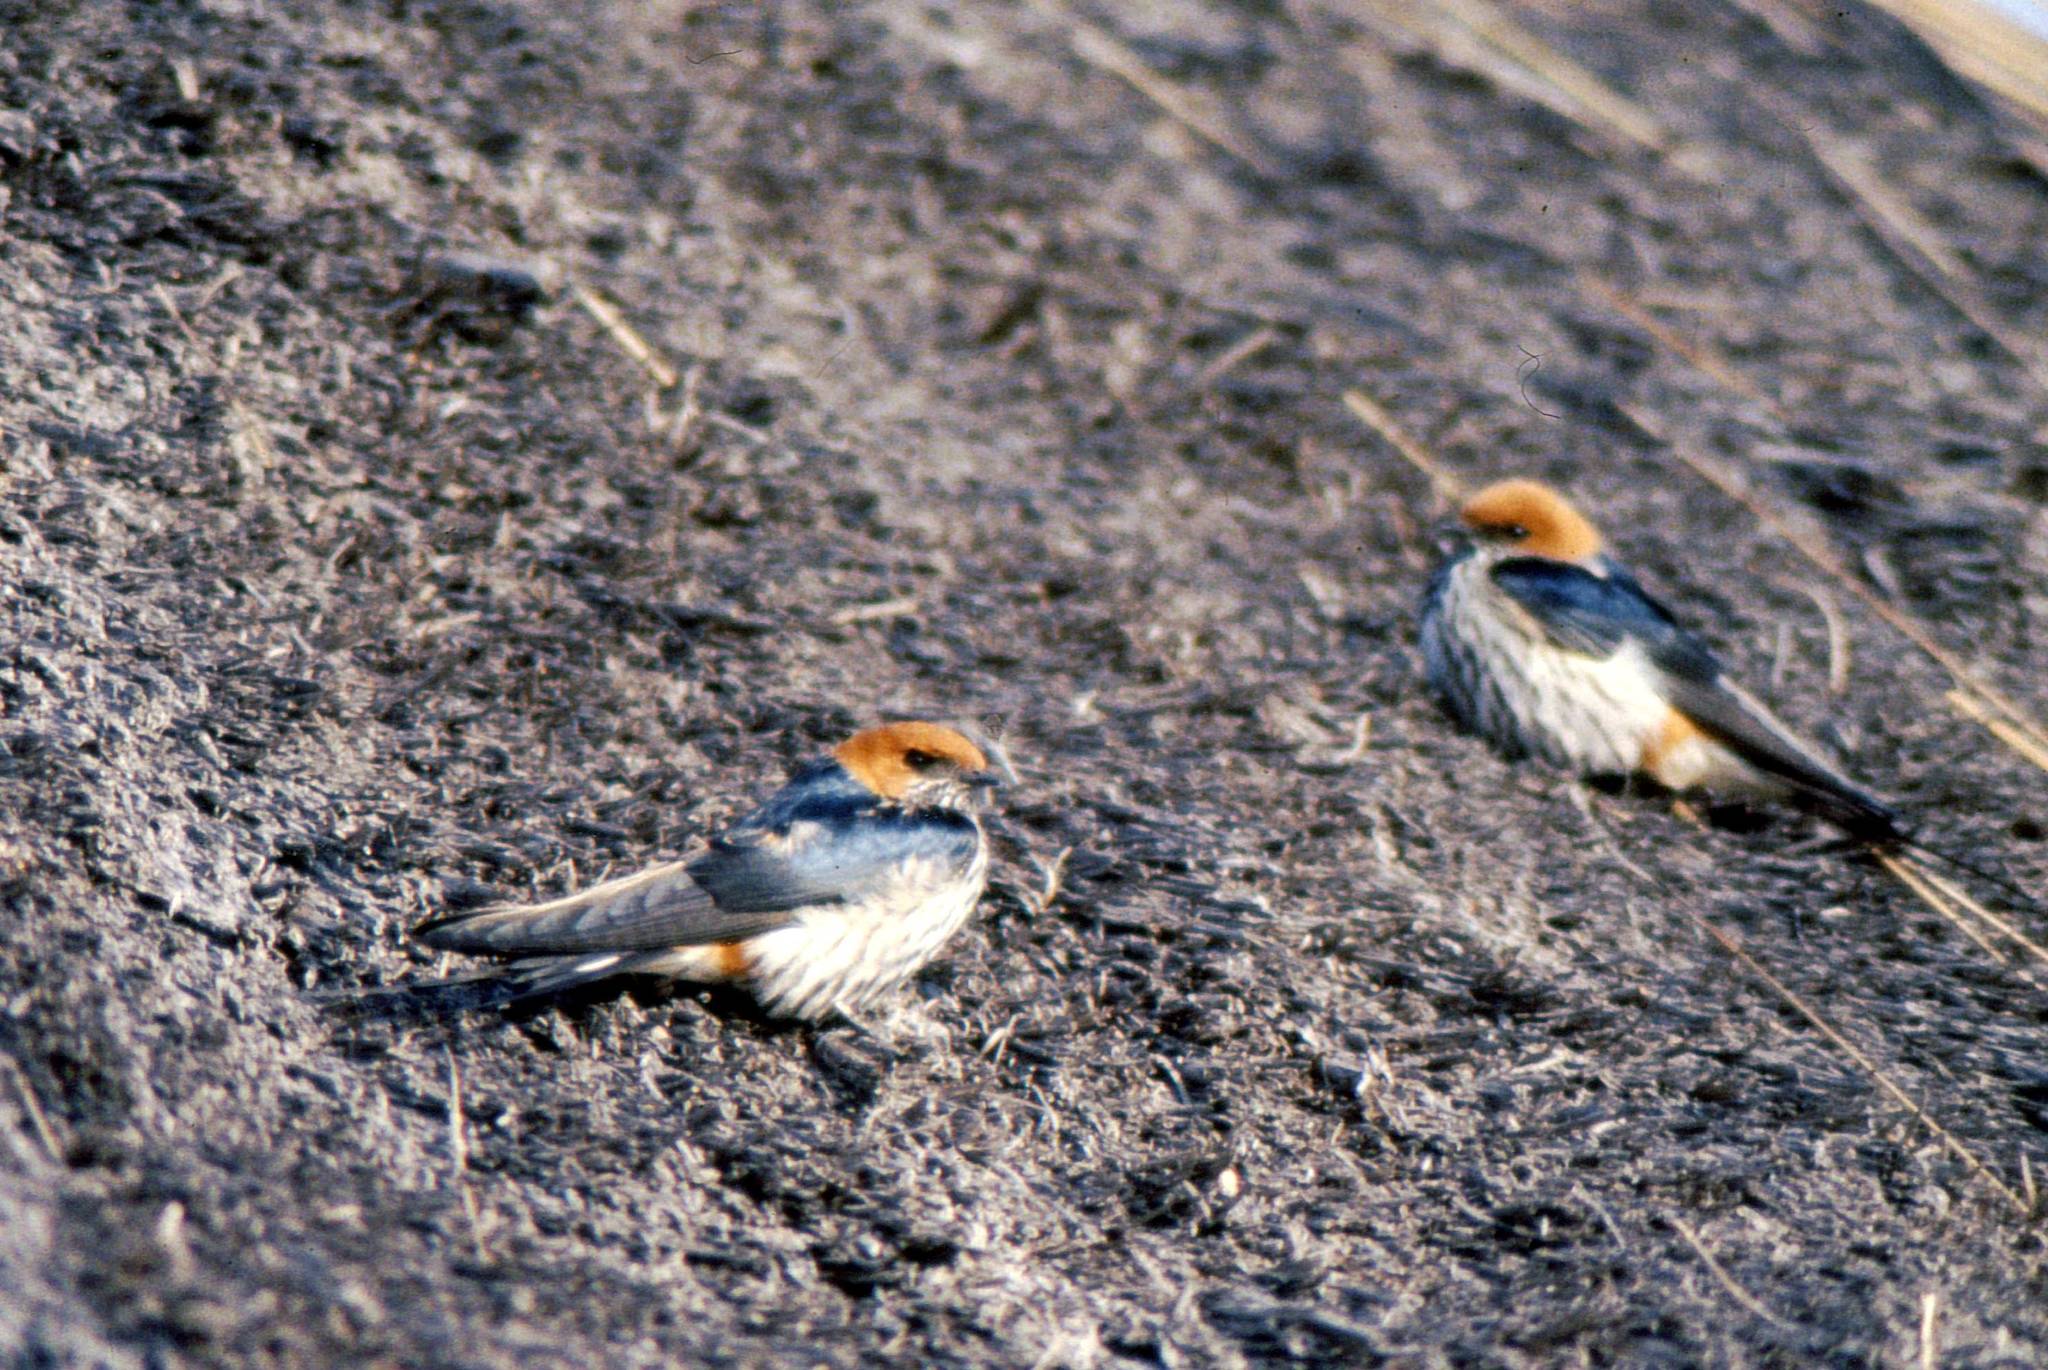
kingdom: Animalia
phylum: Chordata
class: Aves
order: Passeriformes
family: Hirundinidae
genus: Cecropis
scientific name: Cecropis abyssinica
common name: Lesser striped-swallow
